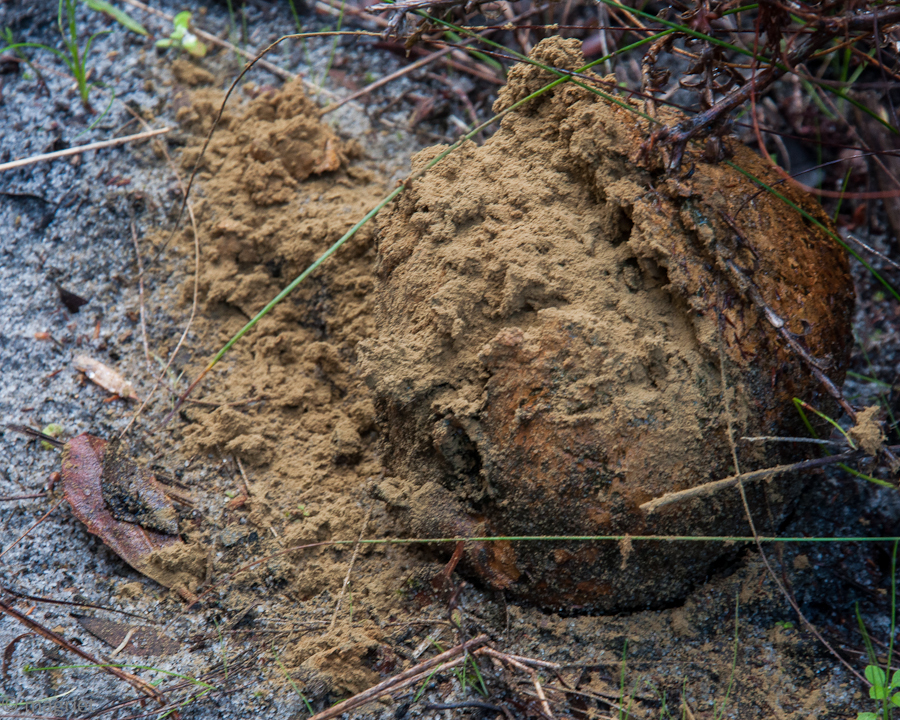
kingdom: Fungi
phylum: Basidiomycota
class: Agaricomycetes
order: Boletales
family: Sclerodermataceae
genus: Pisolithus
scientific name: Pisolithus arhizus
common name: Dyeball
